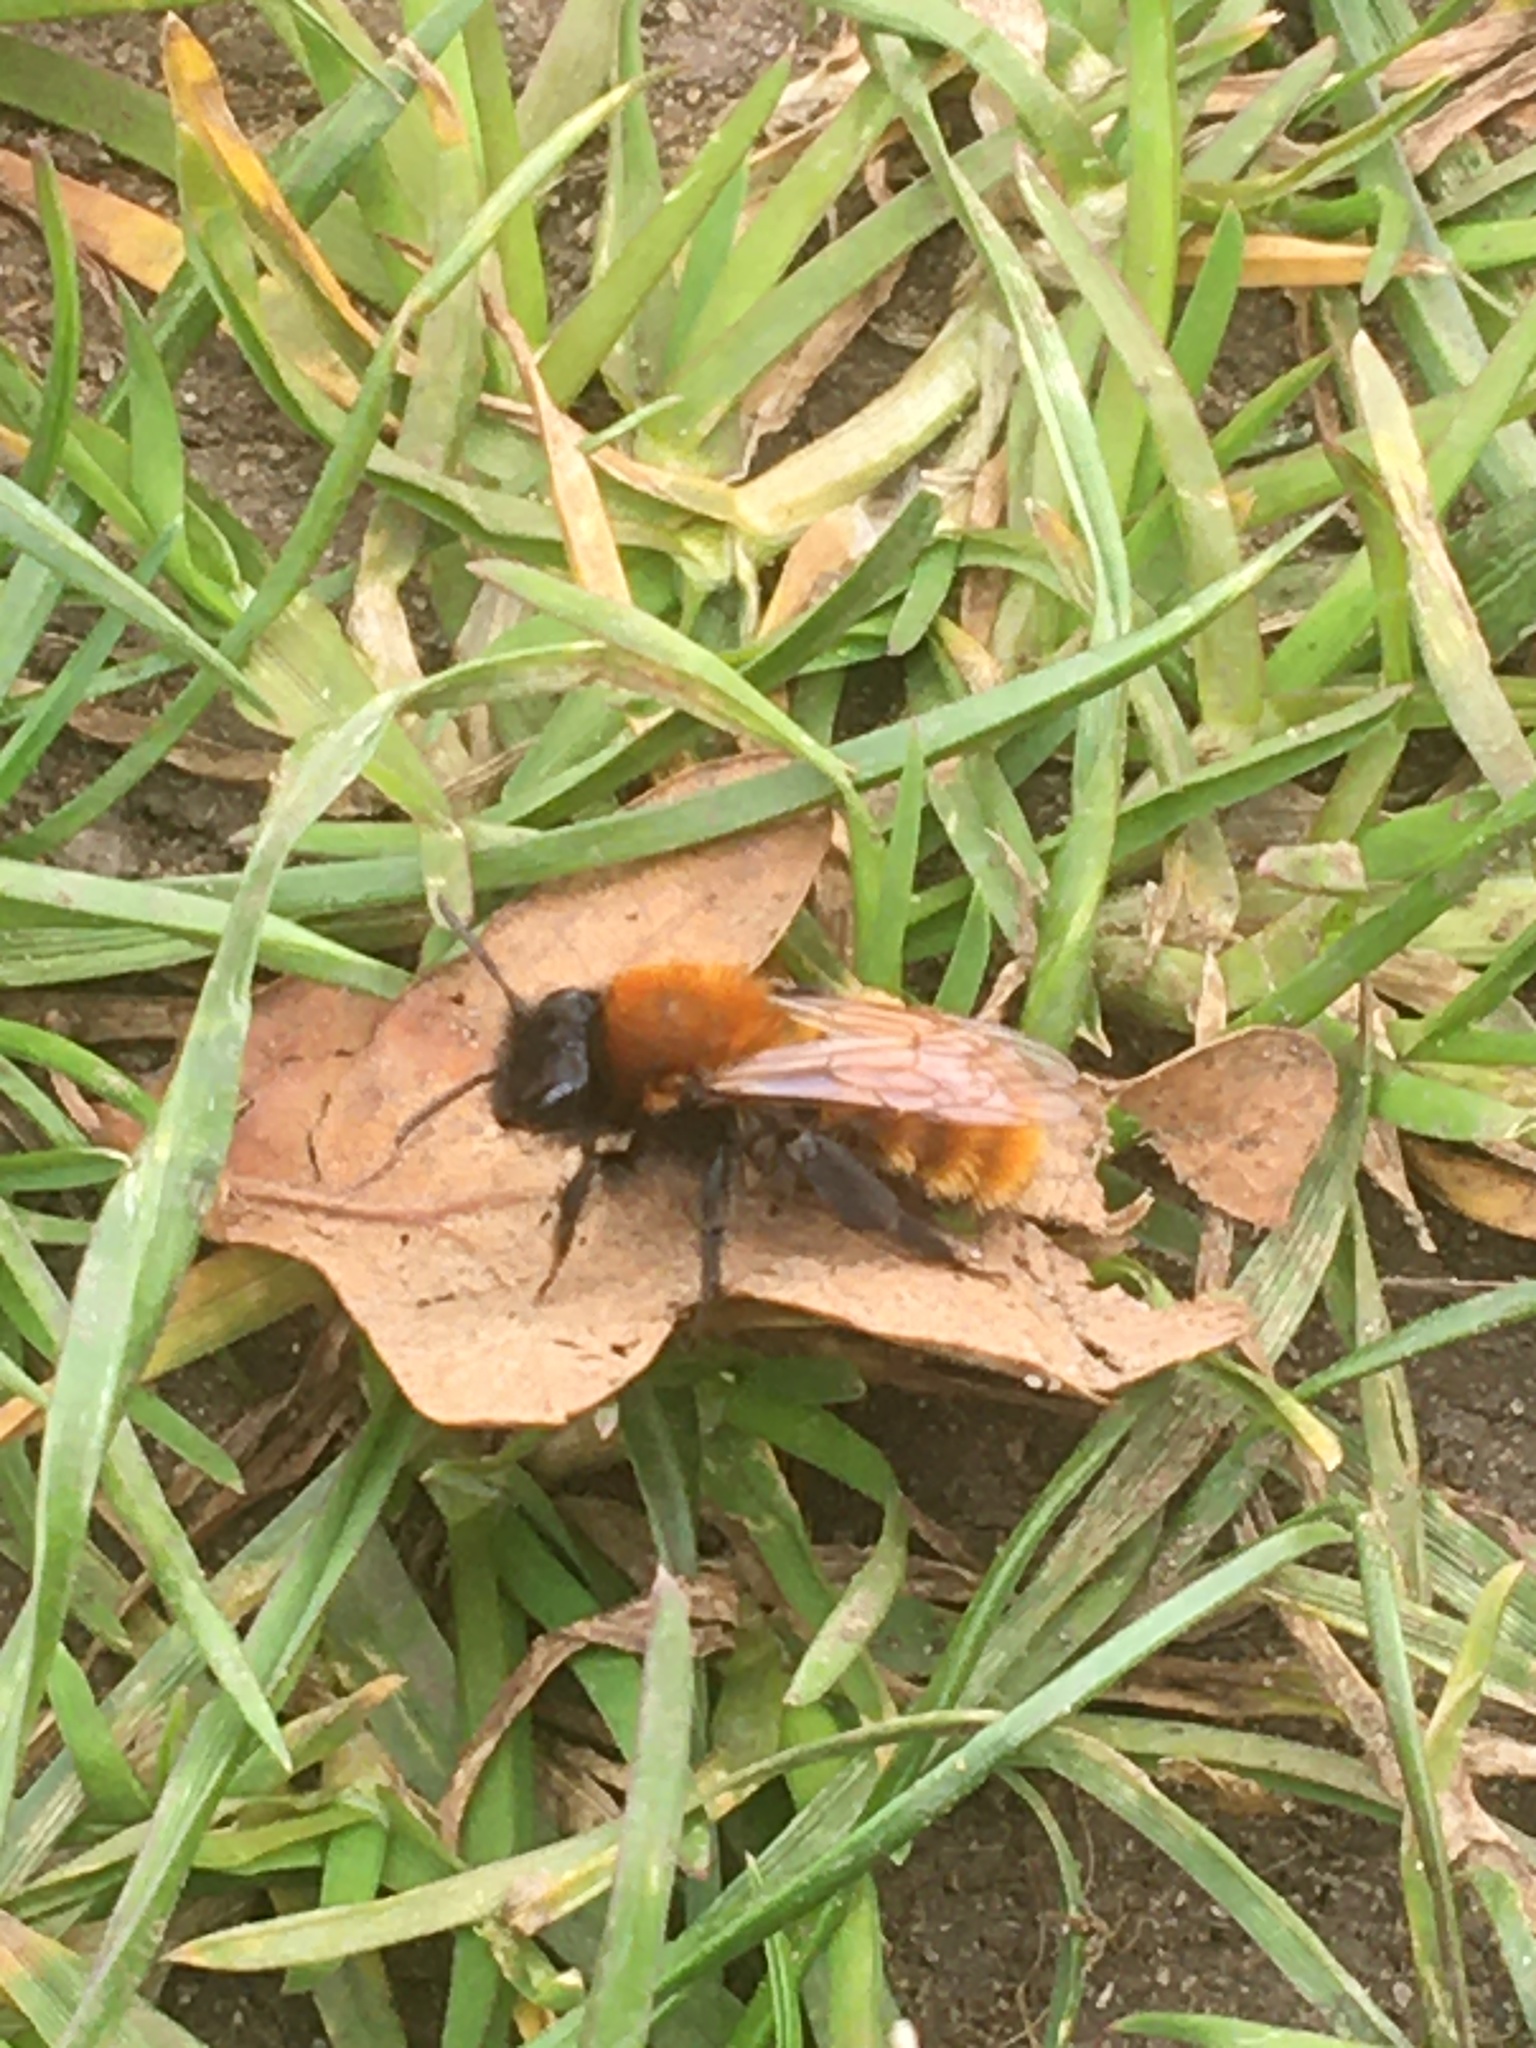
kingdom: Animalia
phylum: Arthropoda
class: Insecta
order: Hymenoptera
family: Andrenidae
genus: Andrena
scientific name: Andrena fulva
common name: Tawny mining bee
